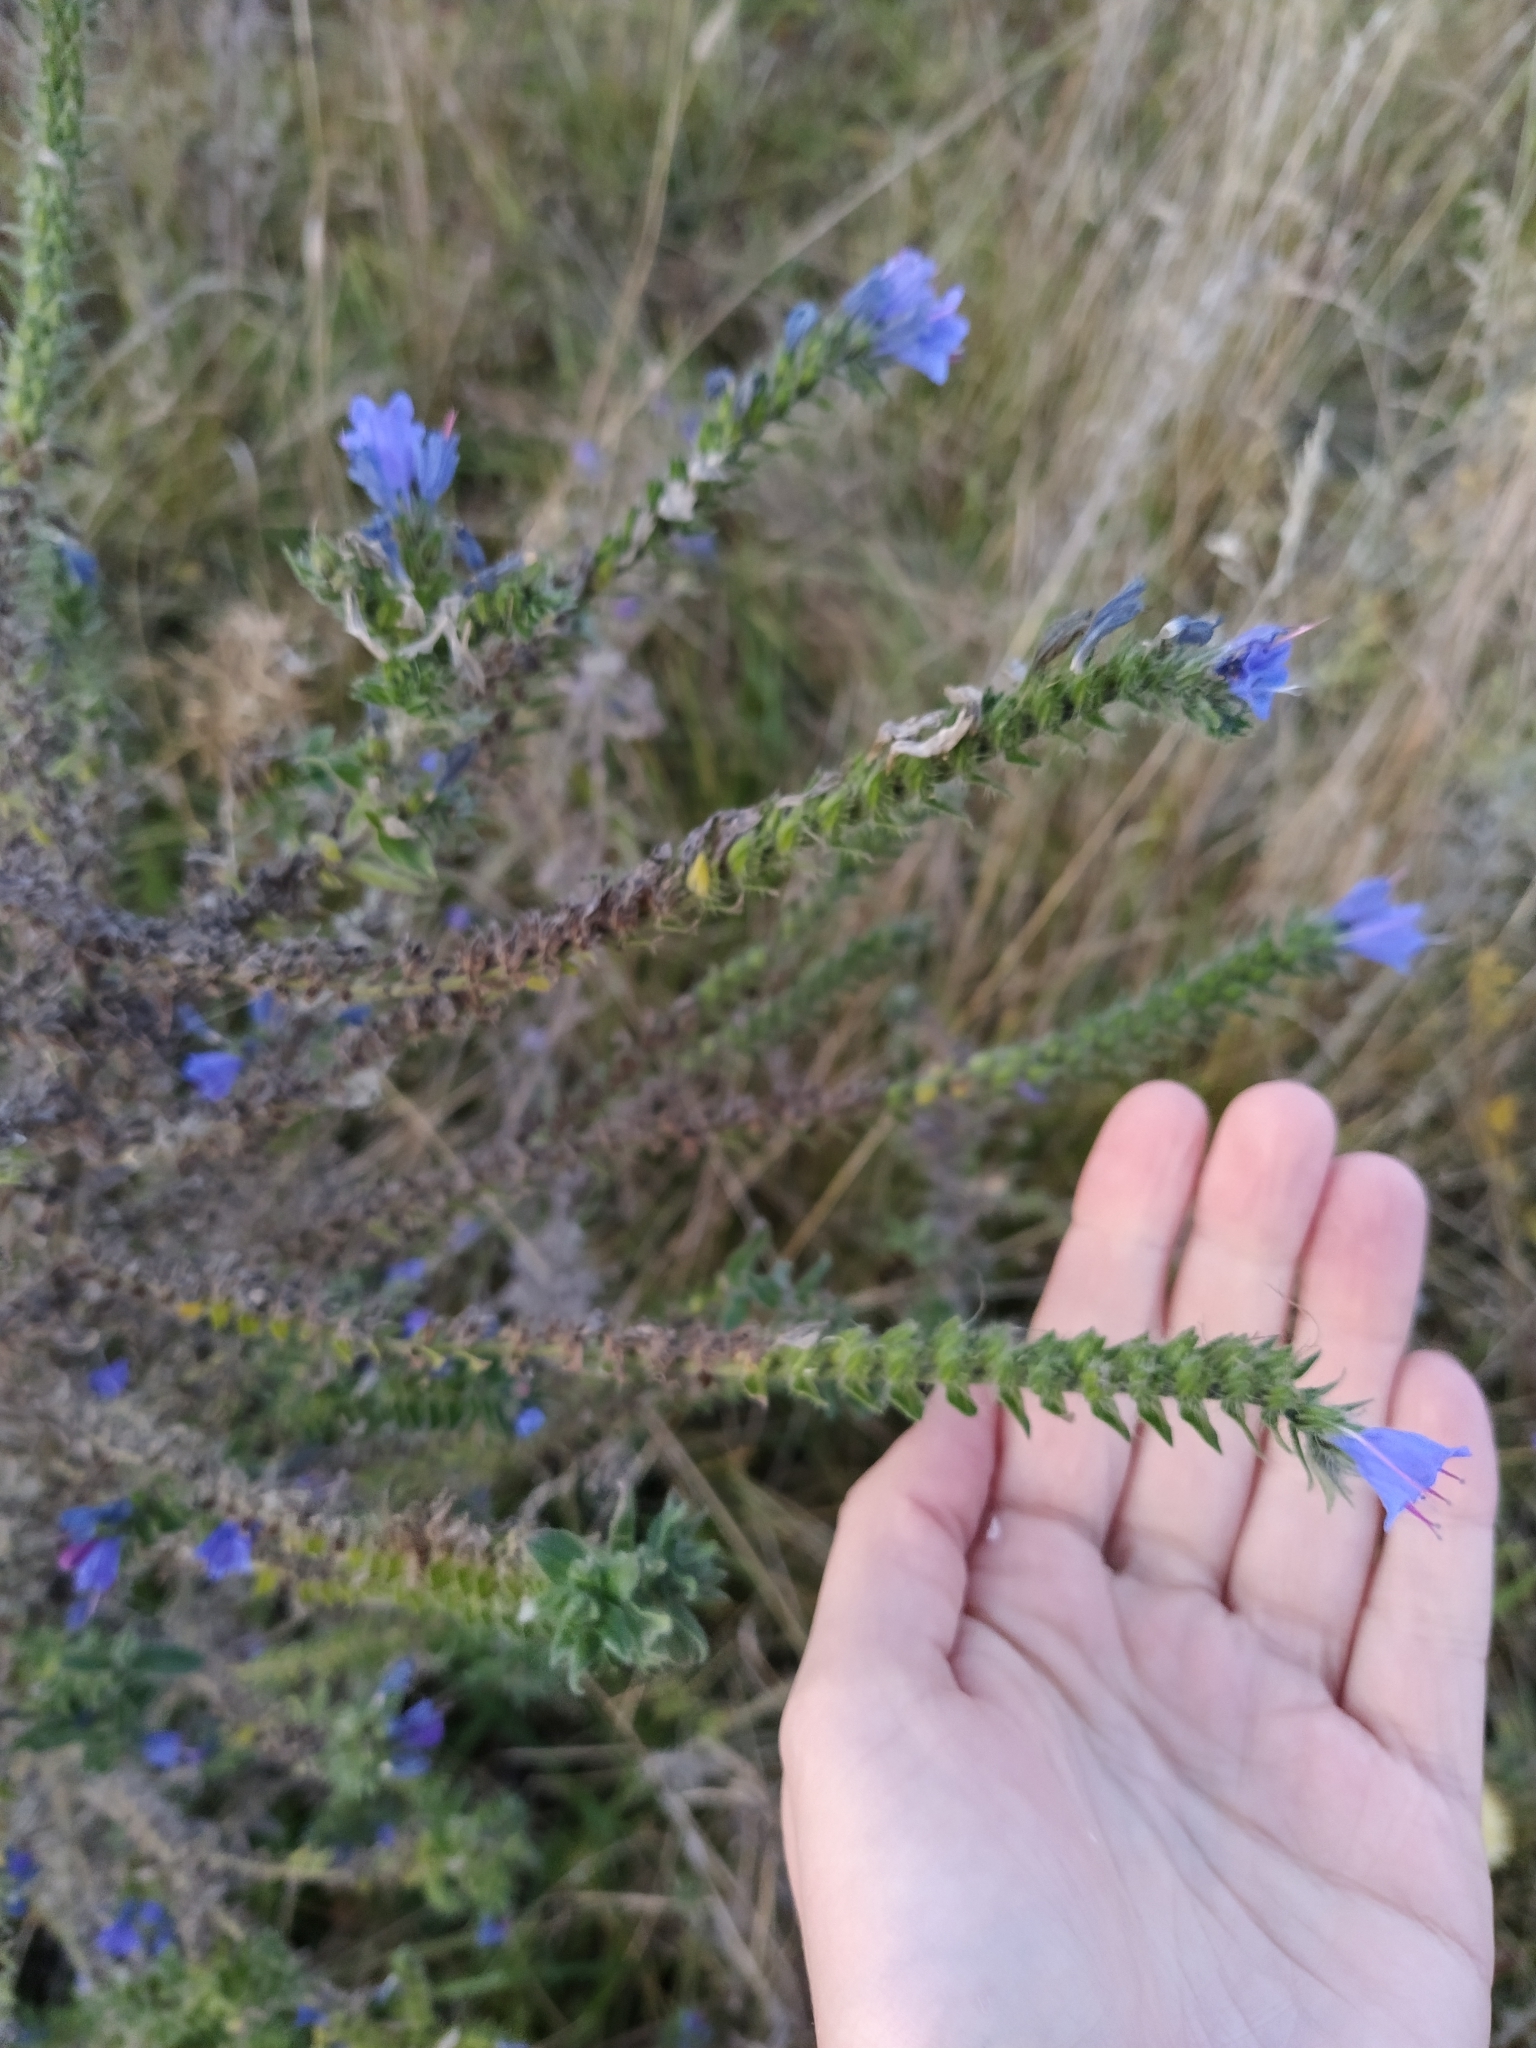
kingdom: Plantae
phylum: Tracheophyta
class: Magnoliopsida
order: Boraginales
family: Boraginaceae
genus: Echium
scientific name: Echium vulgare
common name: Common viper's bugloss
